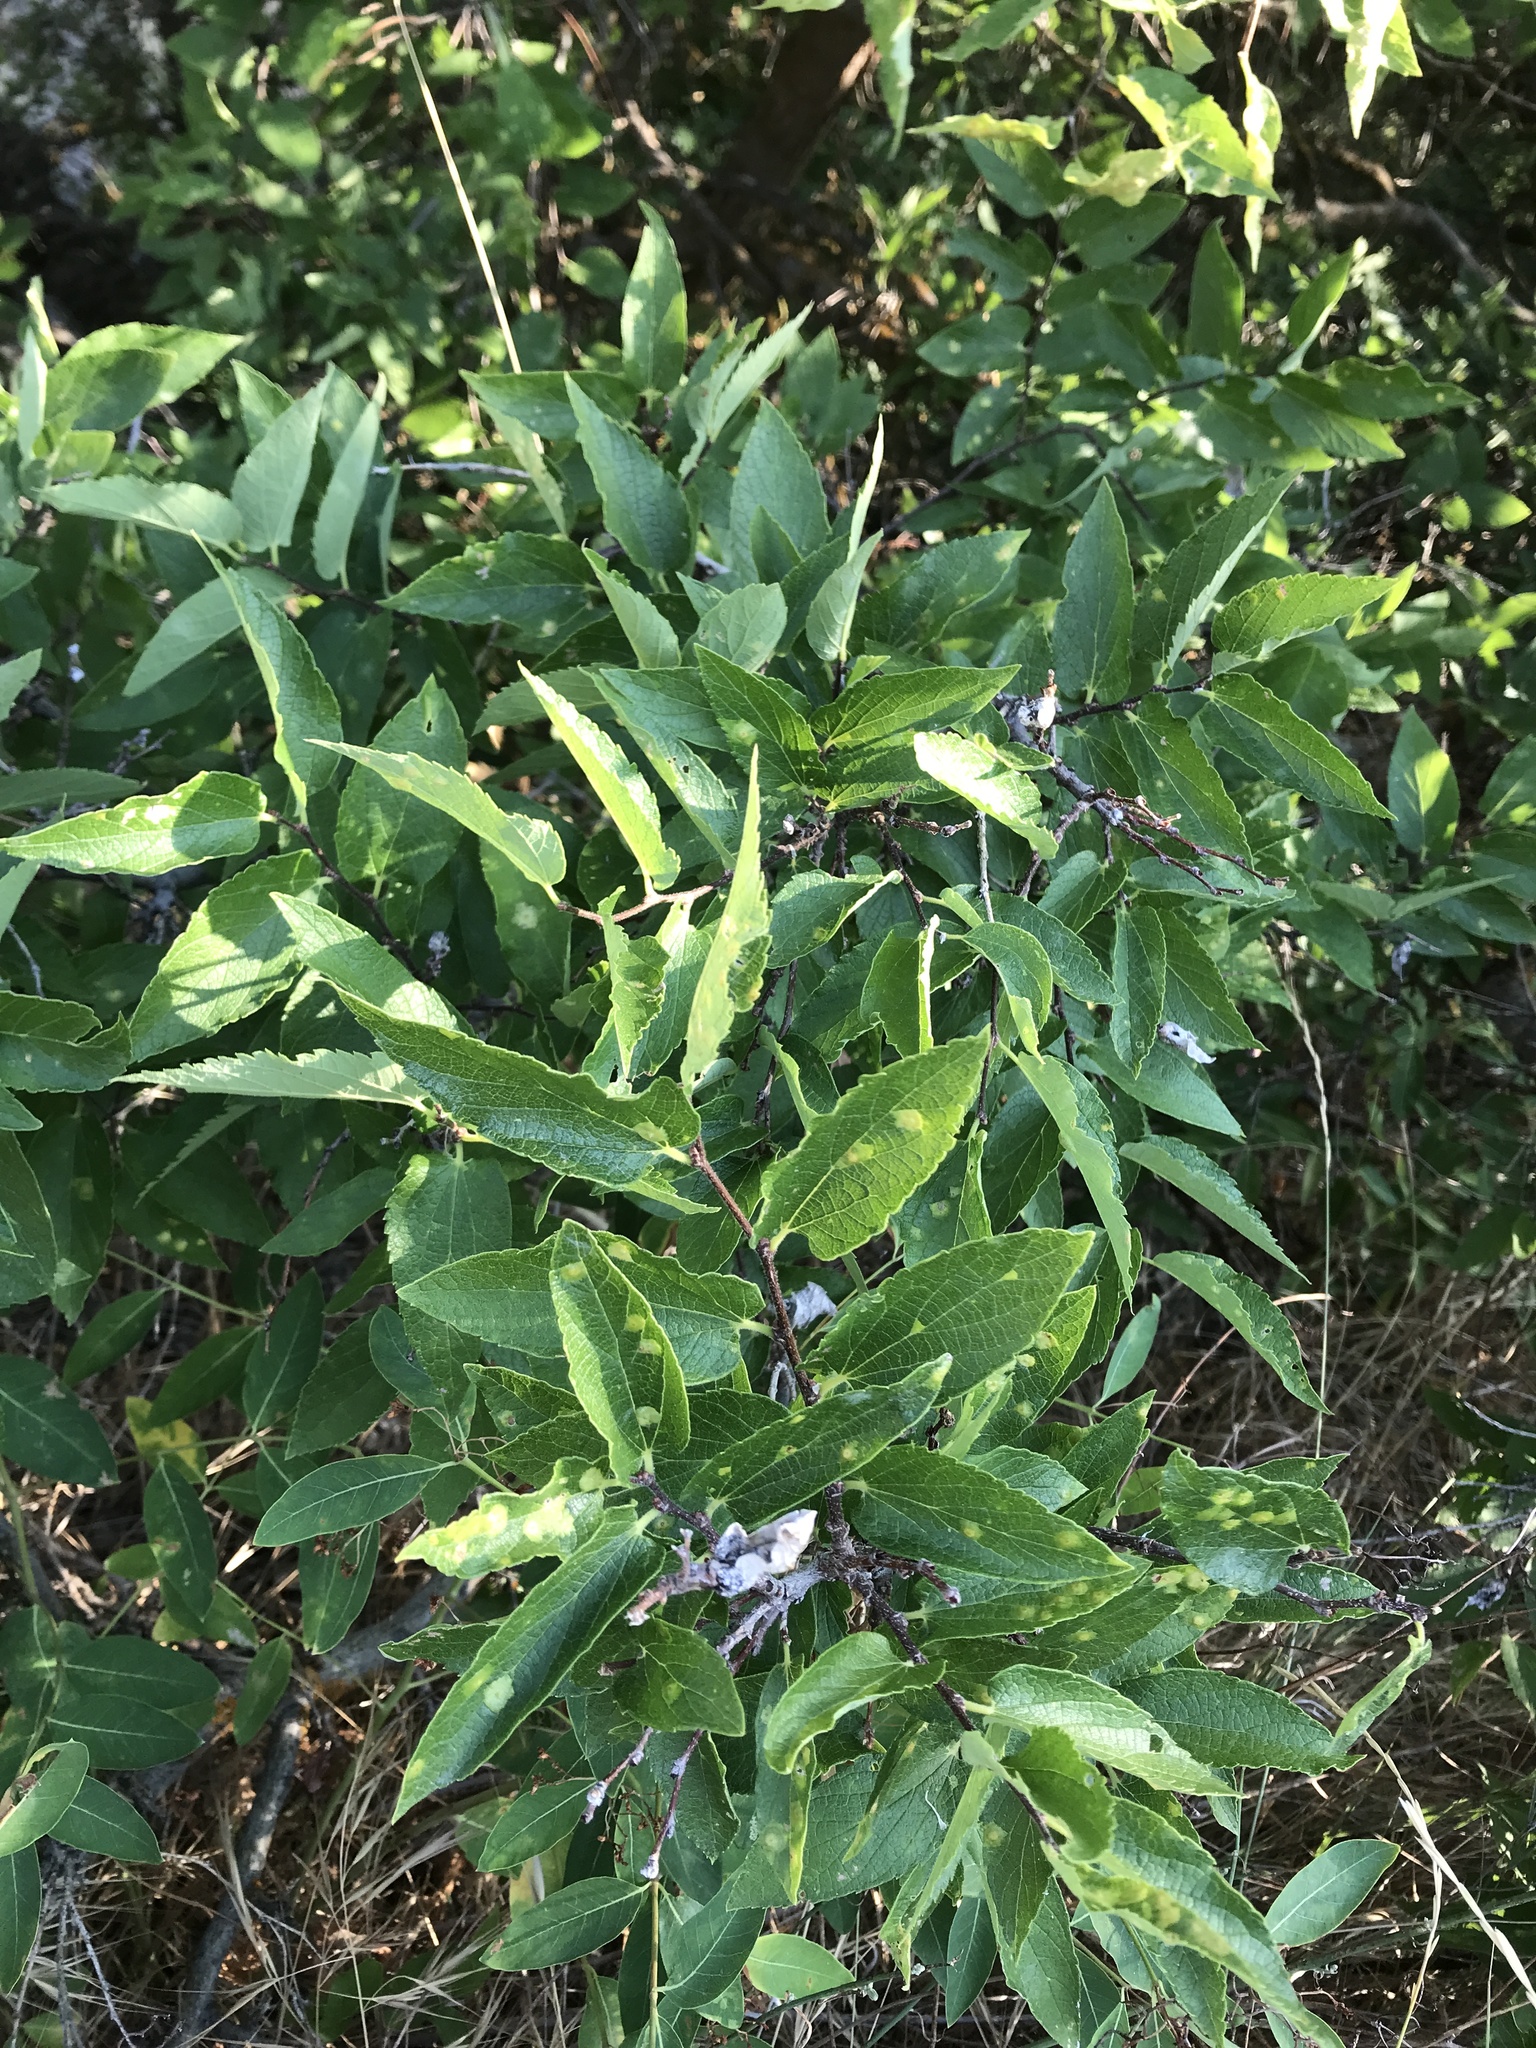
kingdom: Plantae
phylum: Tracheophyta
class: Magnoliopsida
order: Rosales
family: Cannabaceae
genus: Celtis
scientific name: Celtis reticulata
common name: Netleaf hackberry
